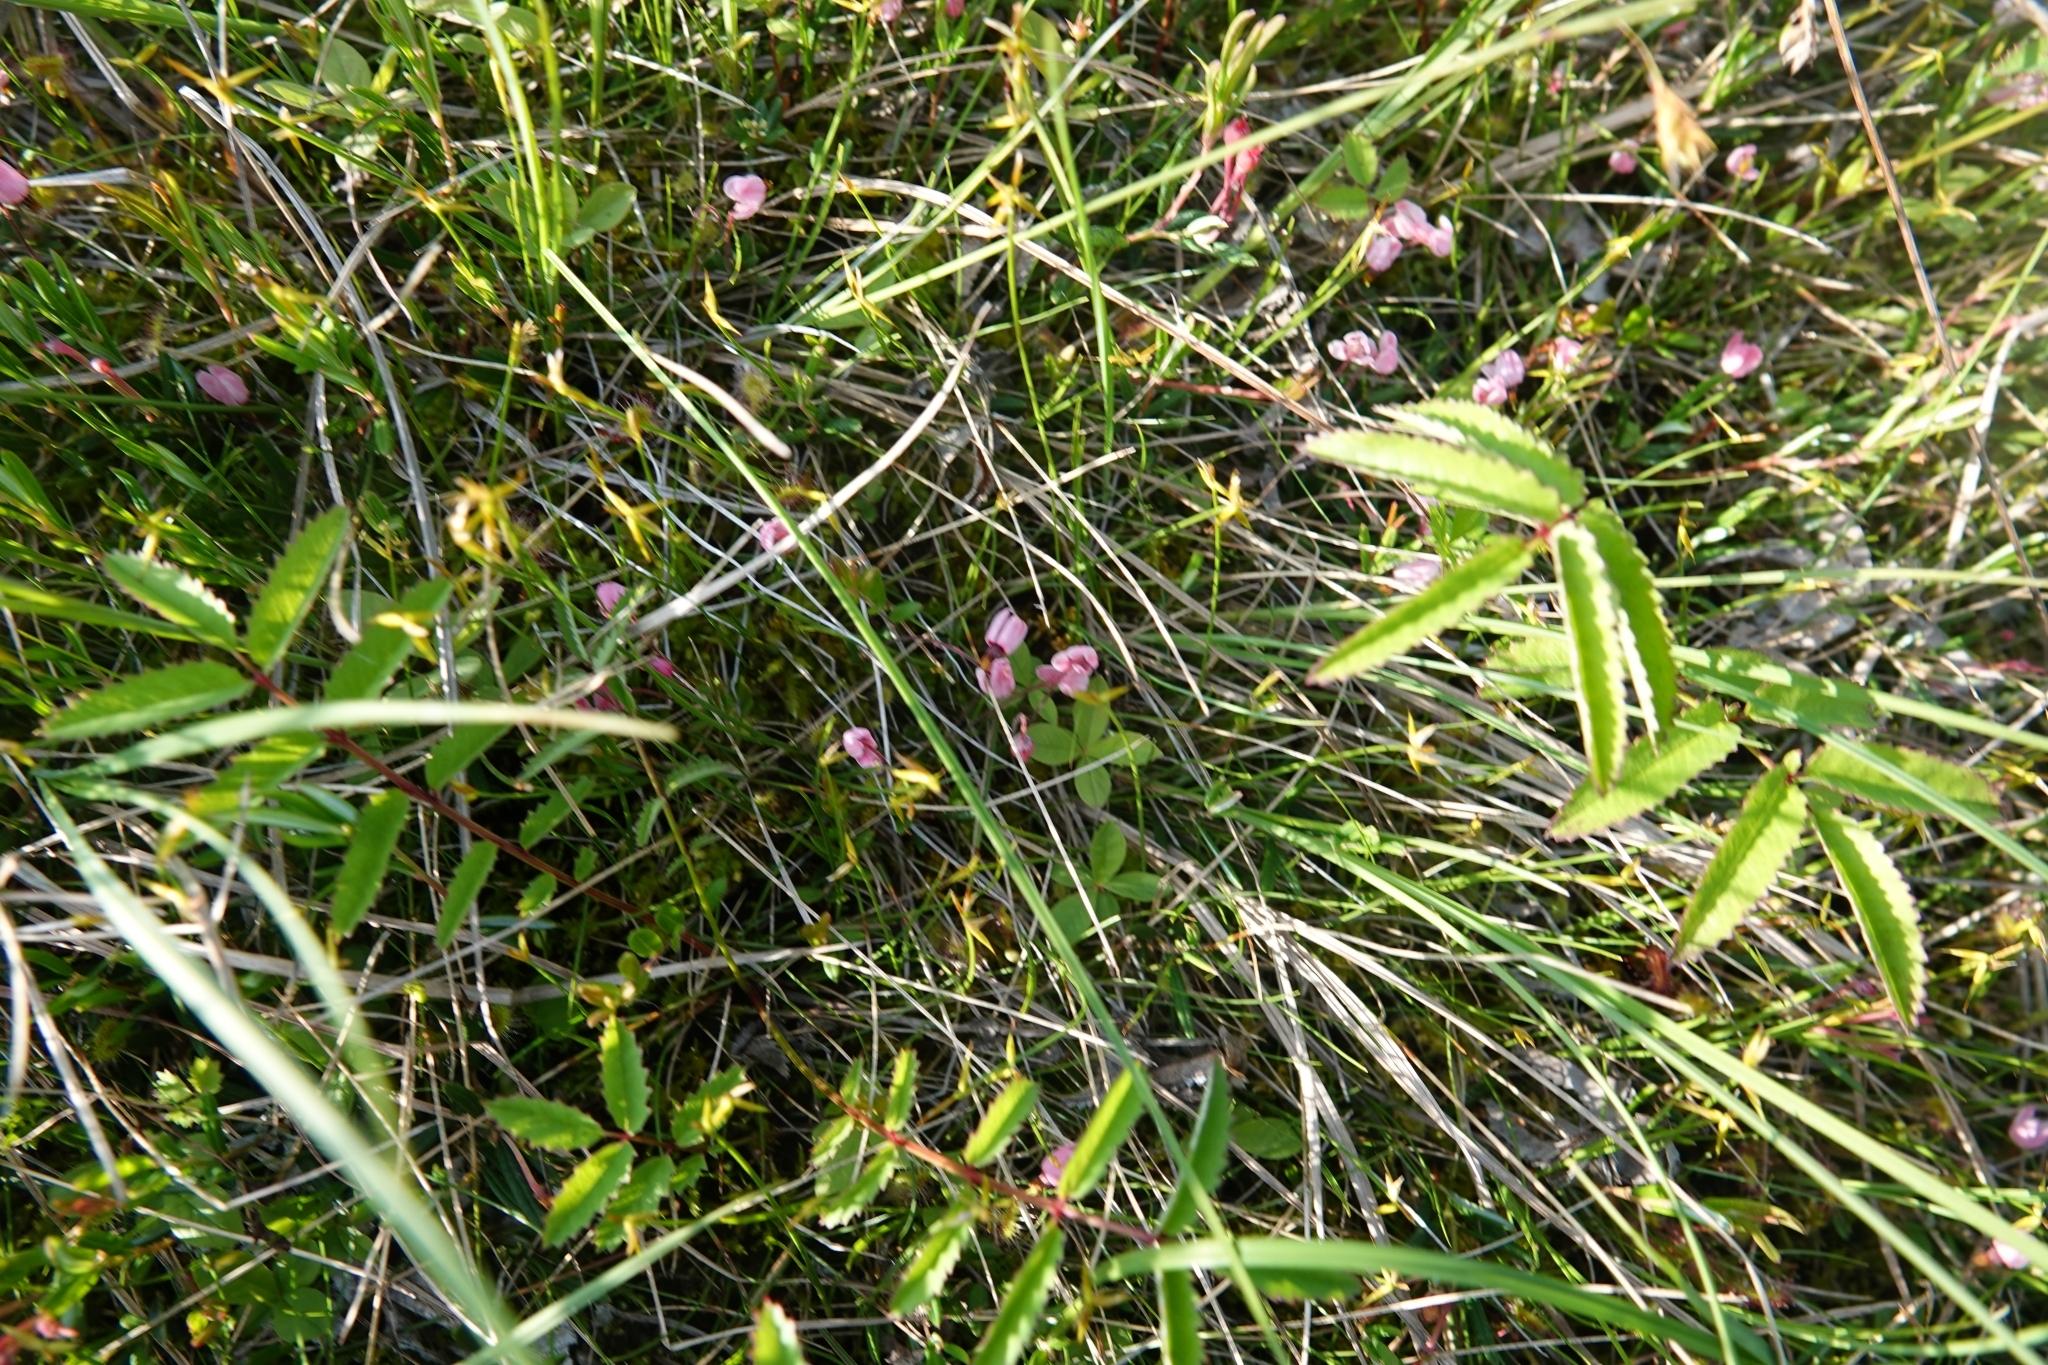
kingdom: Plantae
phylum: Tracheophyta
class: Magnoliopsida
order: Ericales
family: Ericaceae
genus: Vaccinium
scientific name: Vaccinium oxycoccos
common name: Cranberry
